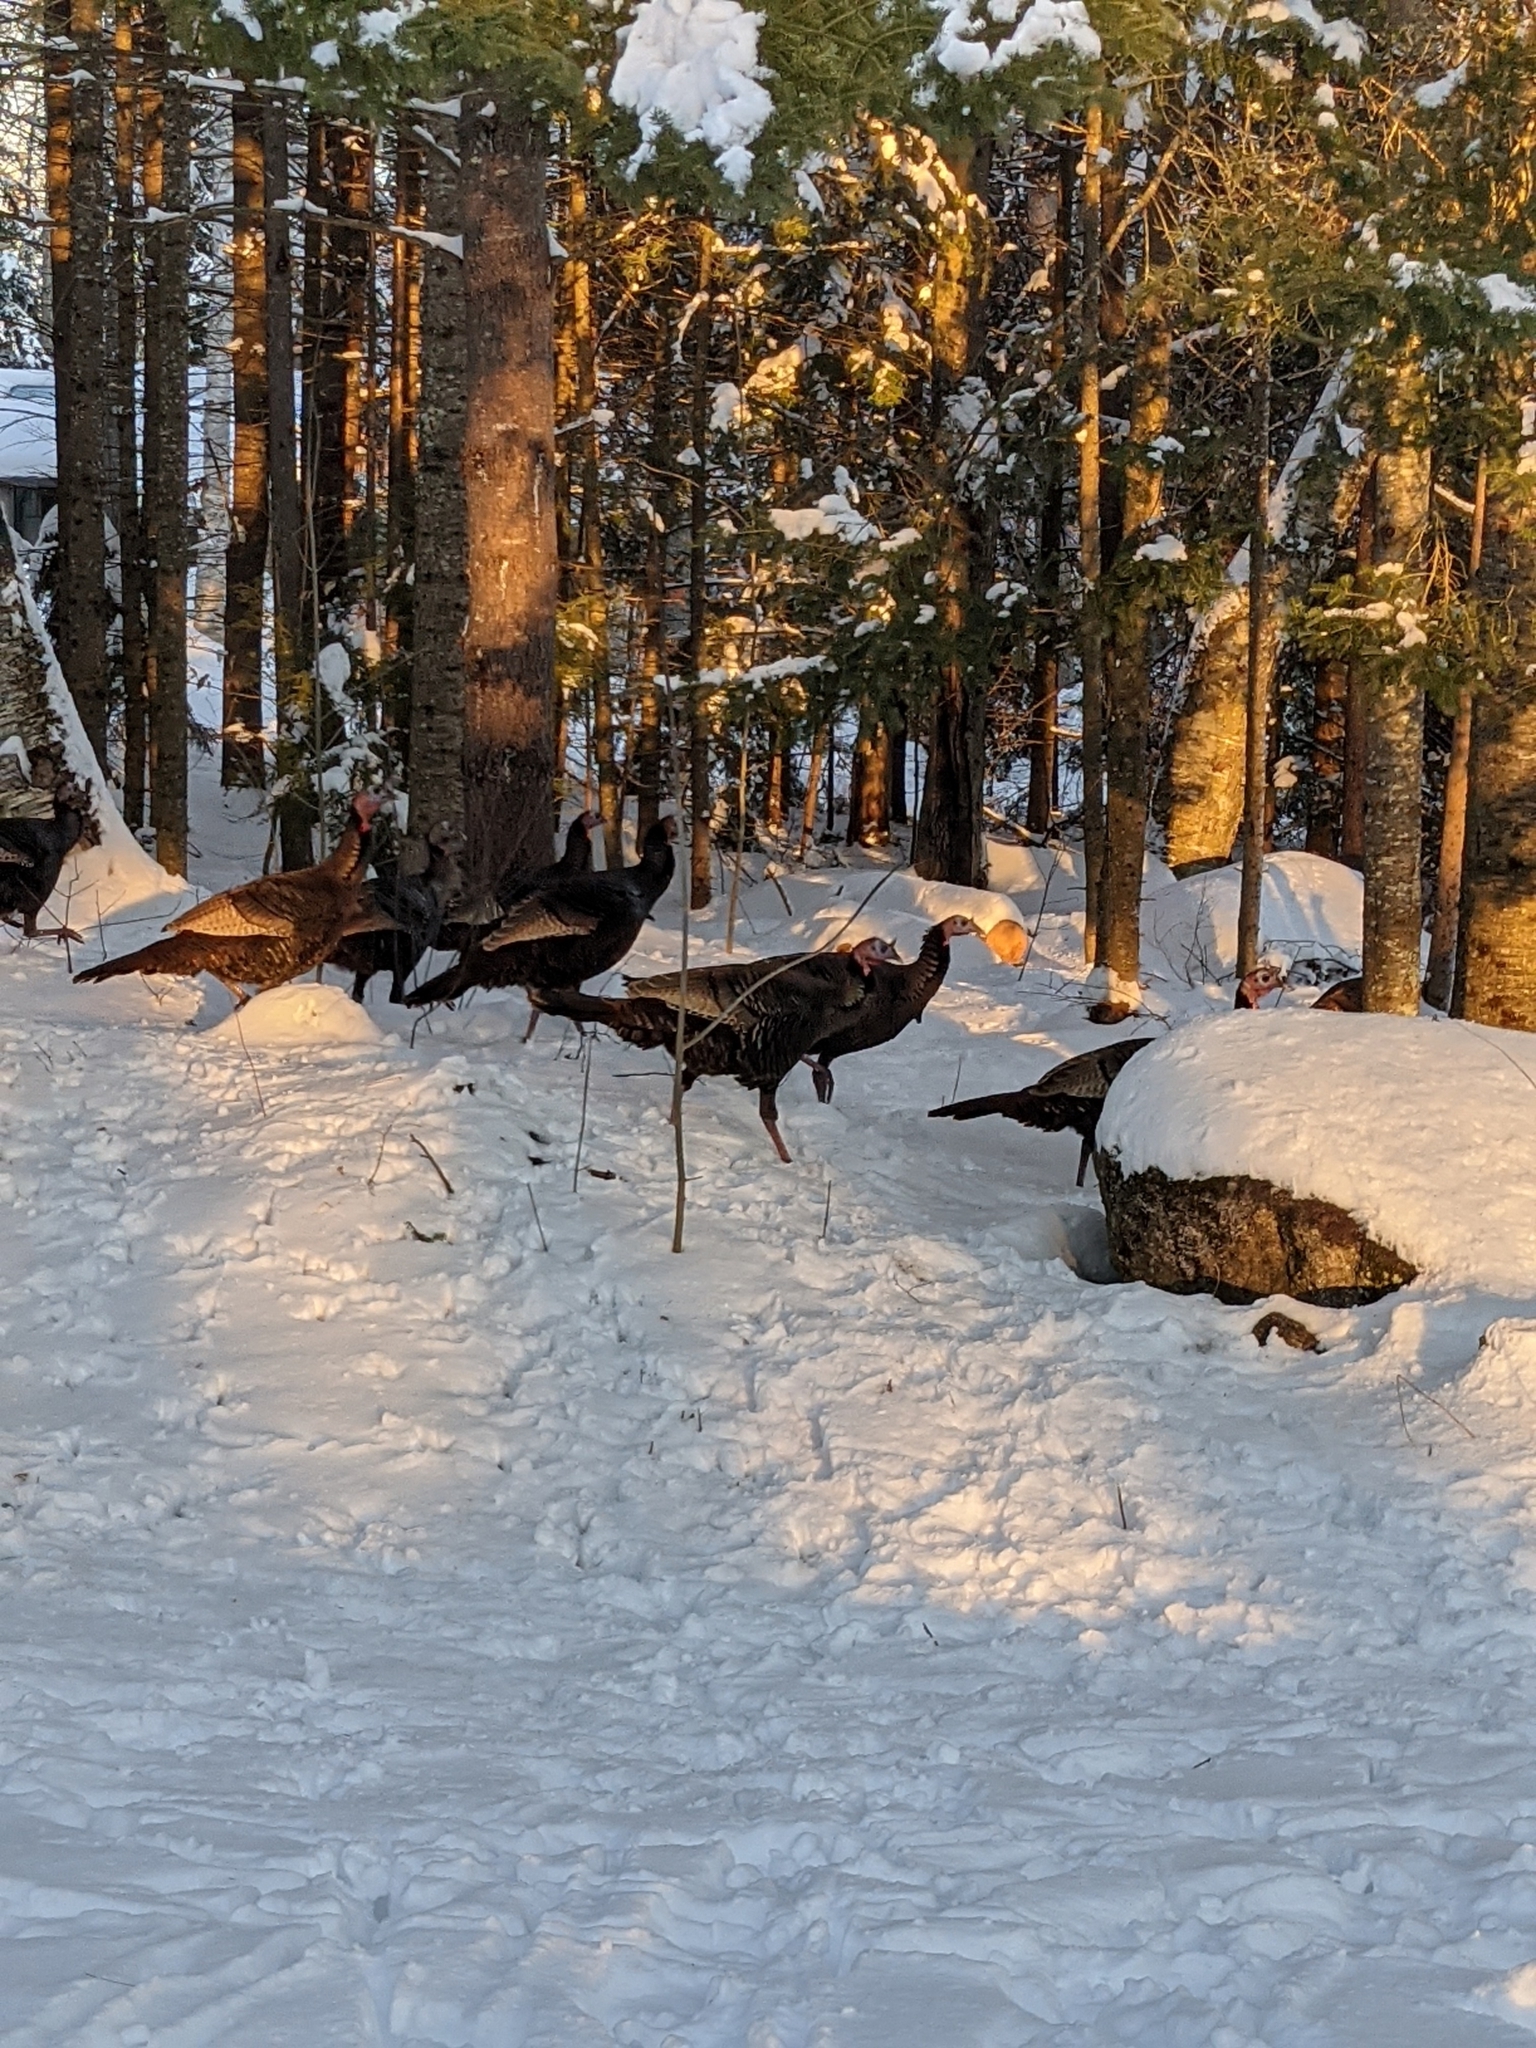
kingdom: Animalia
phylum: Chordata
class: Aves
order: Galliformes
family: Phasianidae
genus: Meleagris
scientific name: Meleagris gallopavo
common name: Wild turkey
